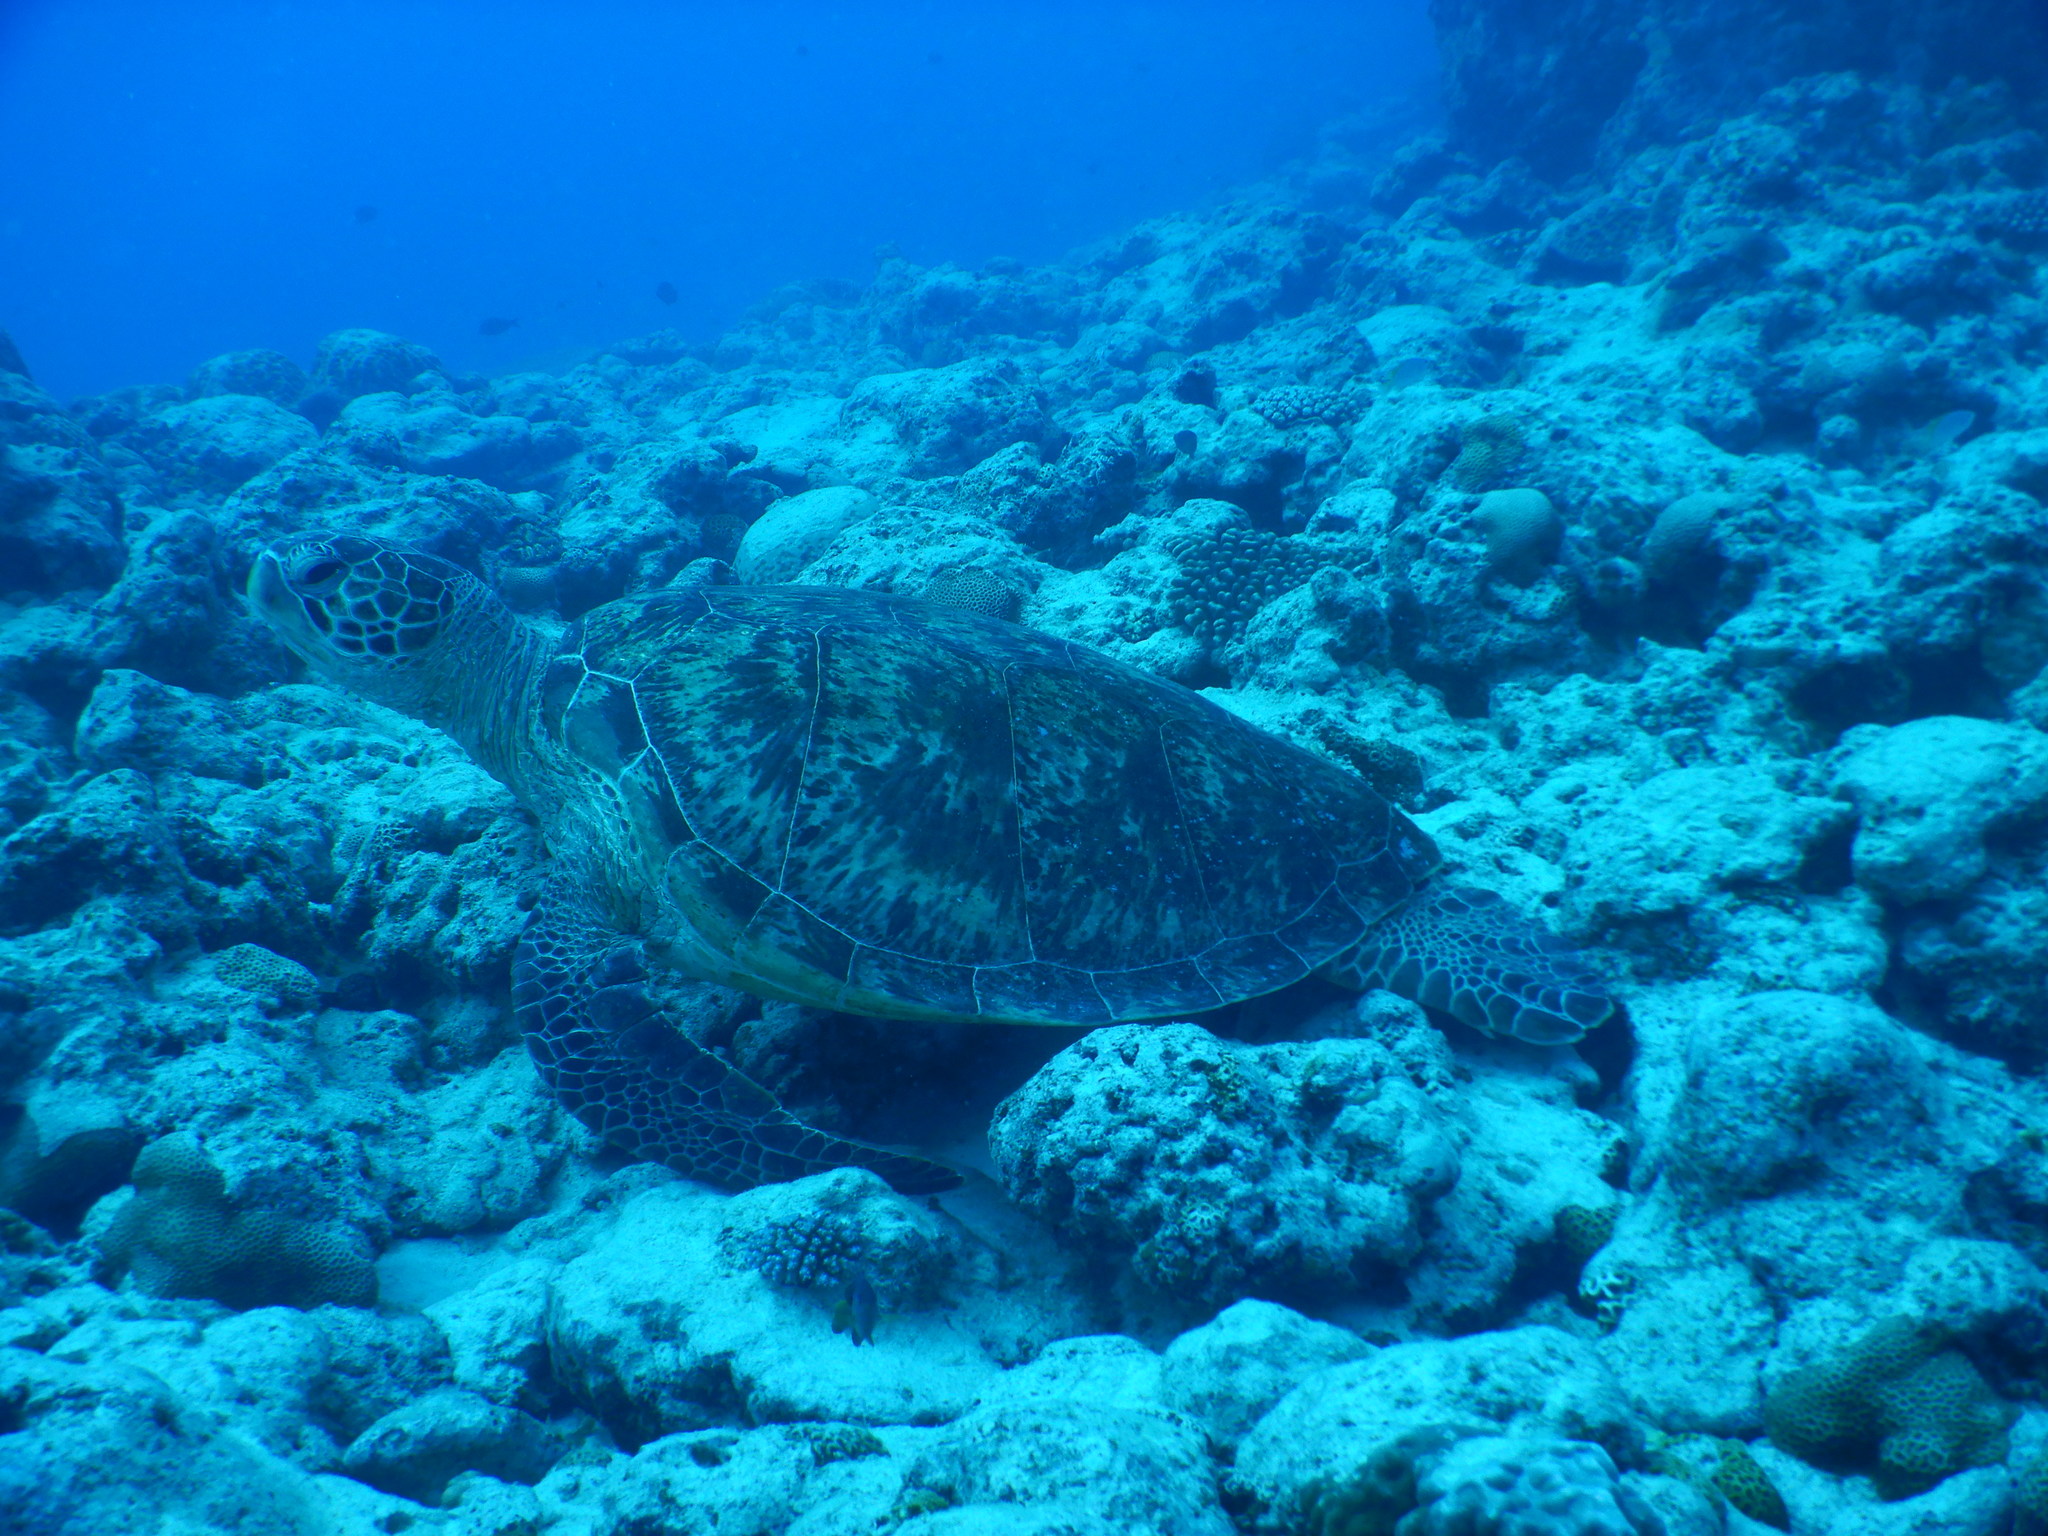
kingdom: Animalia
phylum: Chordata
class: Testudines
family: Cheloniidae
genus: Chelonia
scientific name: Chelonia mydas
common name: Green turtle
